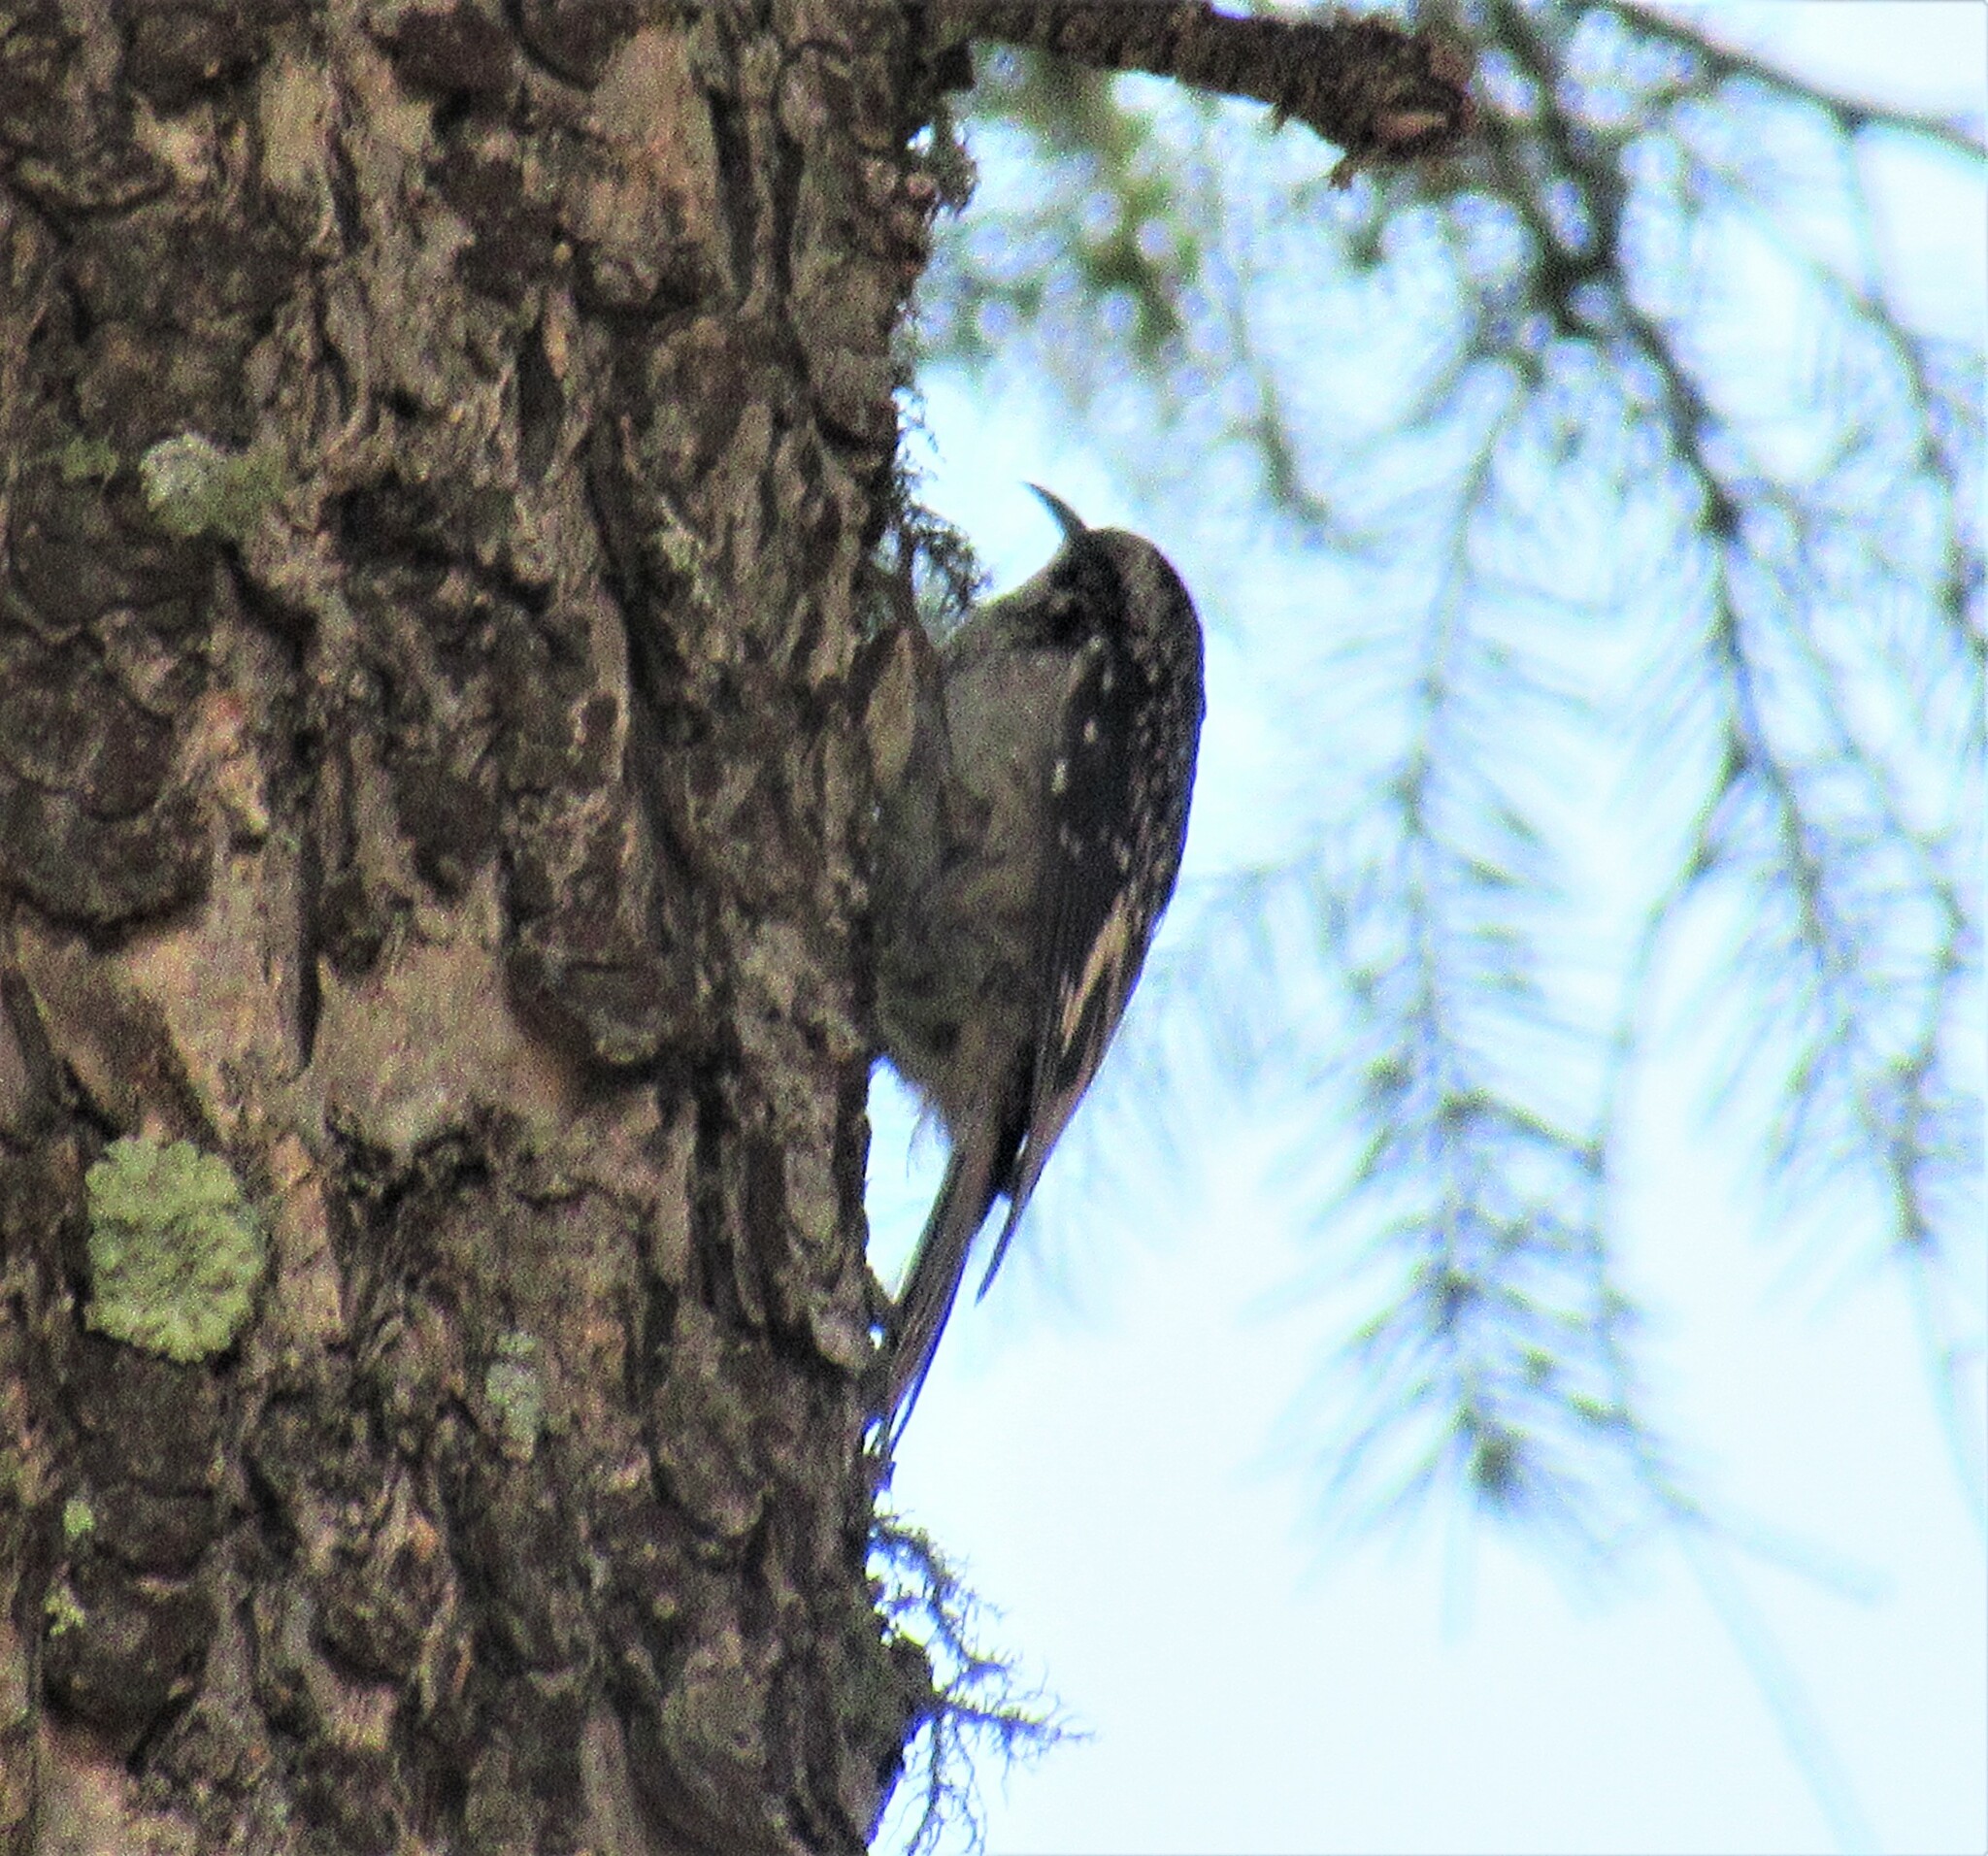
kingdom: Animalia
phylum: Chordata
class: Aves
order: Passeriformes
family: Certhiidae
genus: Certhia
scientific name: Certhia americana
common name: Brown creeper
